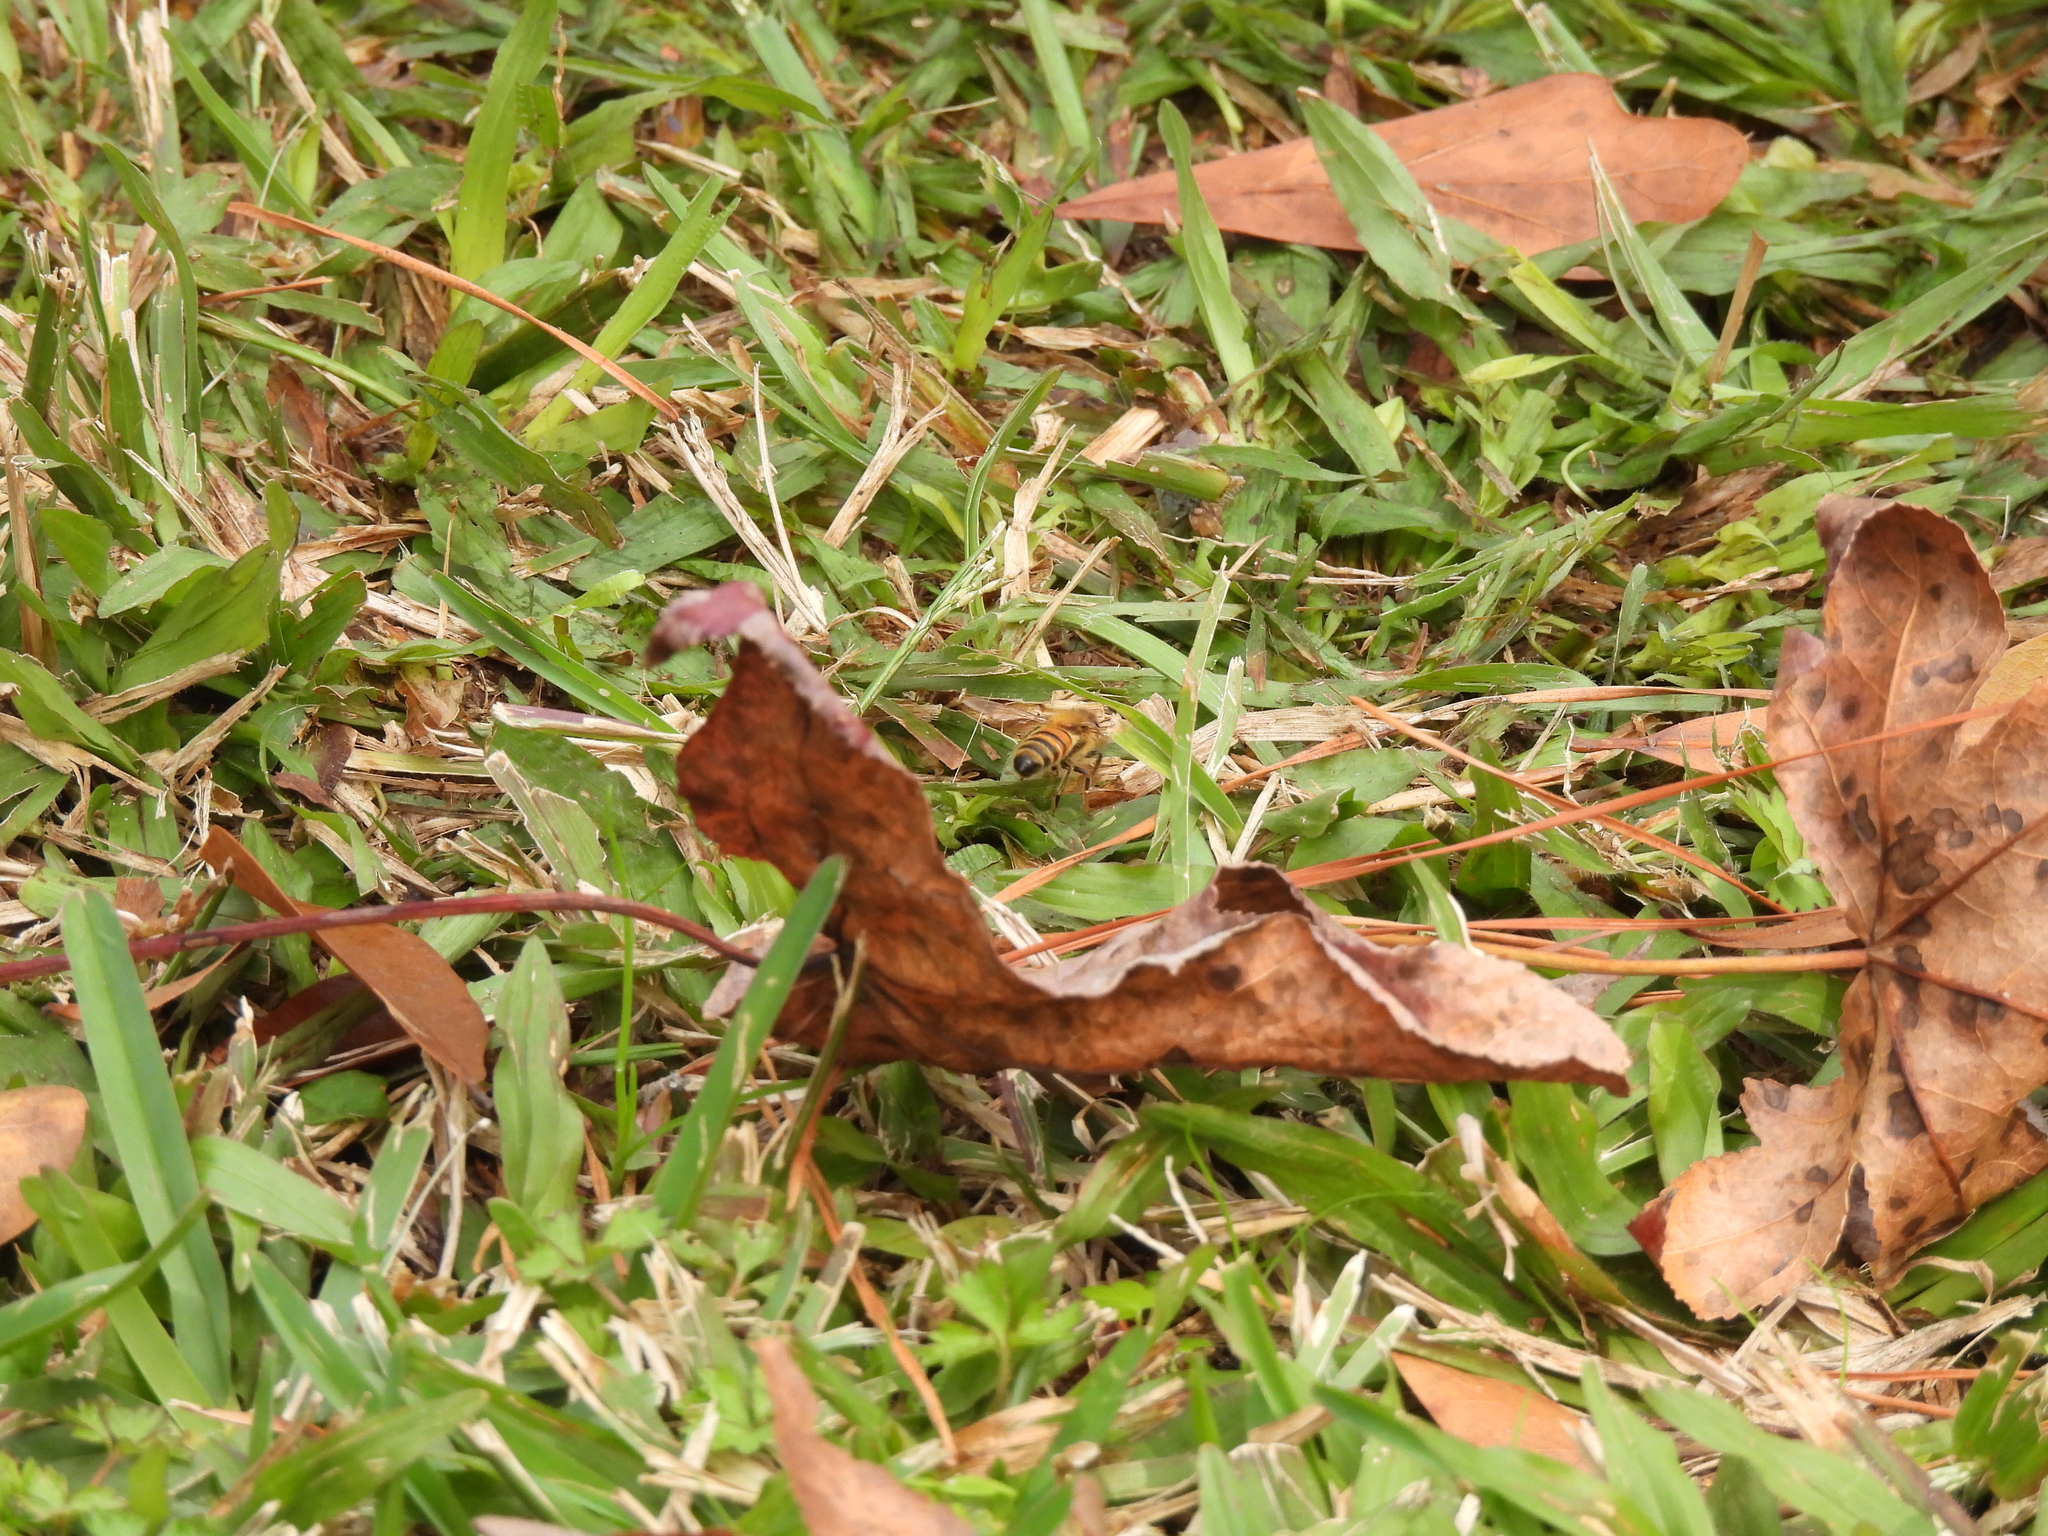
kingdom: Animalia
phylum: Arthropoda
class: Insecta
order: Hymenoptera
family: Apidae
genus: Apis
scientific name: Apis mellifera
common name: Honey bee
